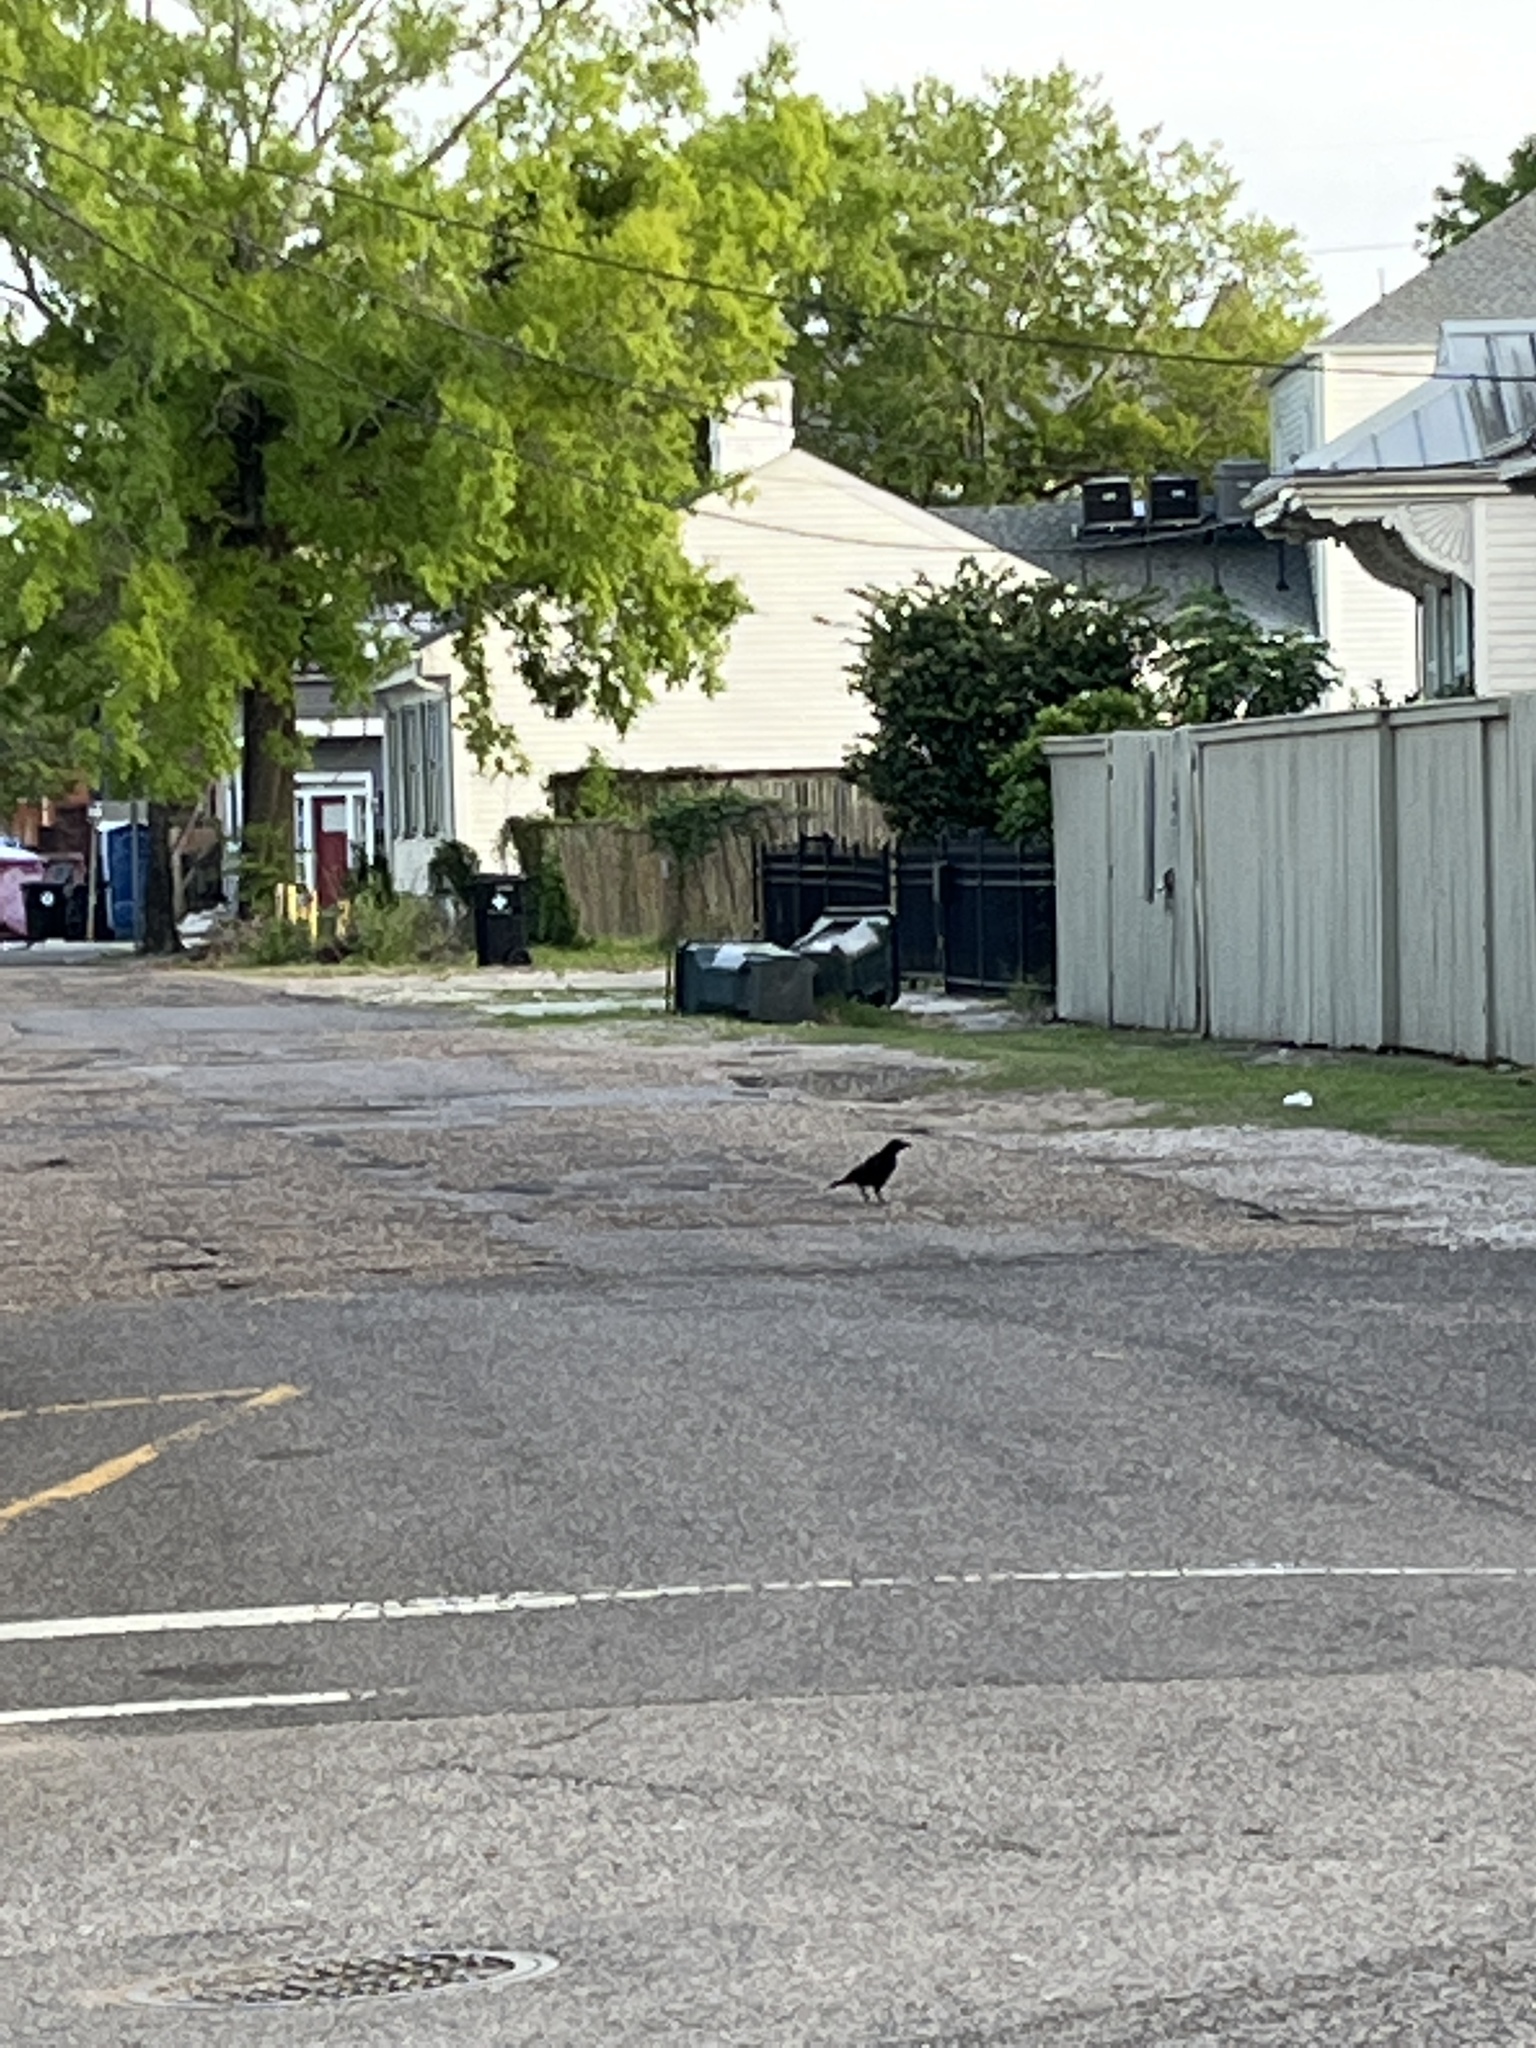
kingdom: Animalia
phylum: Chordata
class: Aves
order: Passeriformes
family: Corvidae
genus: Corvus
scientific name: Corvus brachyrhynchos
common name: American crow
